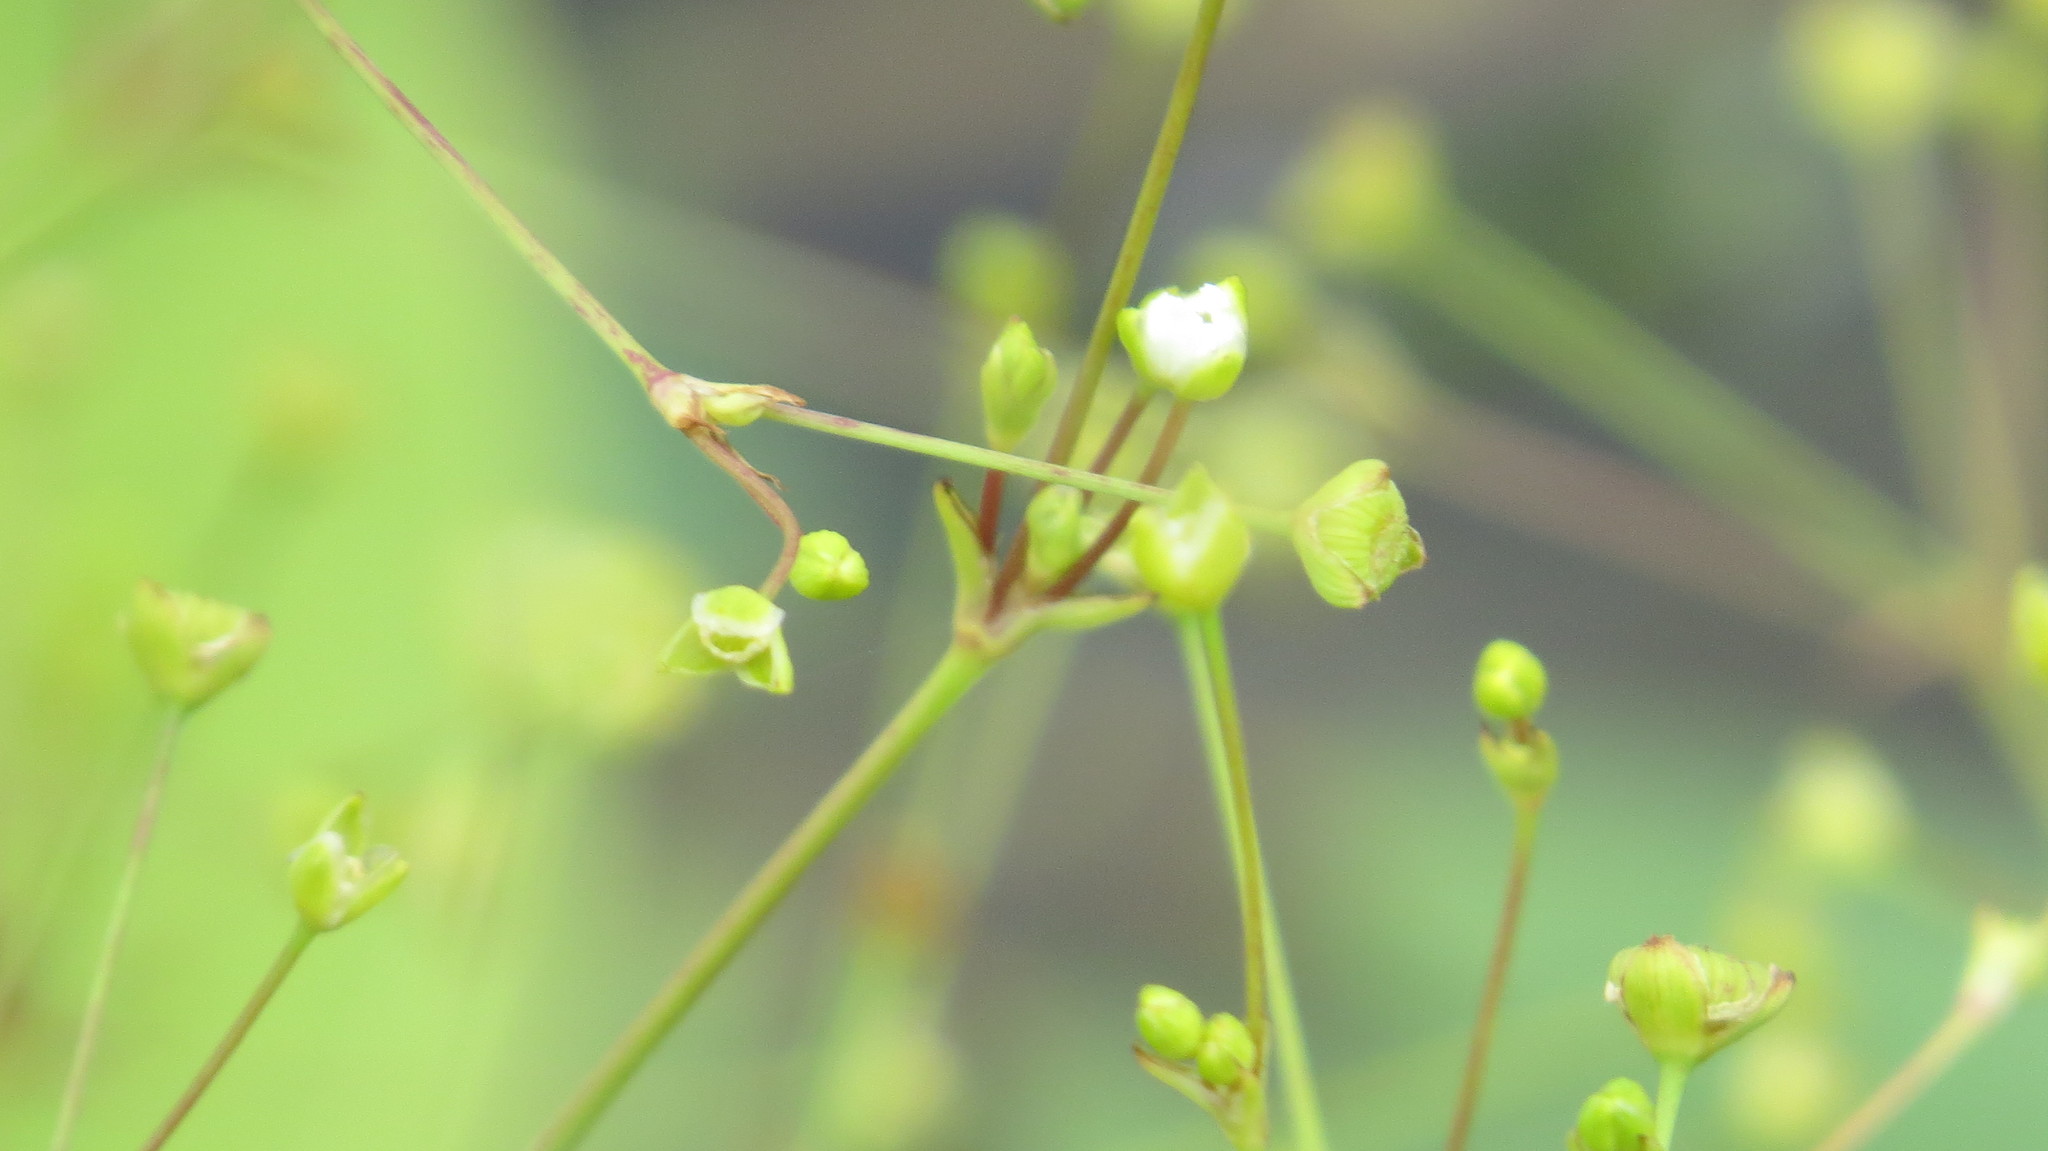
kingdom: Plantae
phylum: Tracheophyta
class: Liliopsida
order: Alismatales
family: Alismataceae
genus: Alisma
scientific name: Alisma triviale
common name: Northern water-plantain
